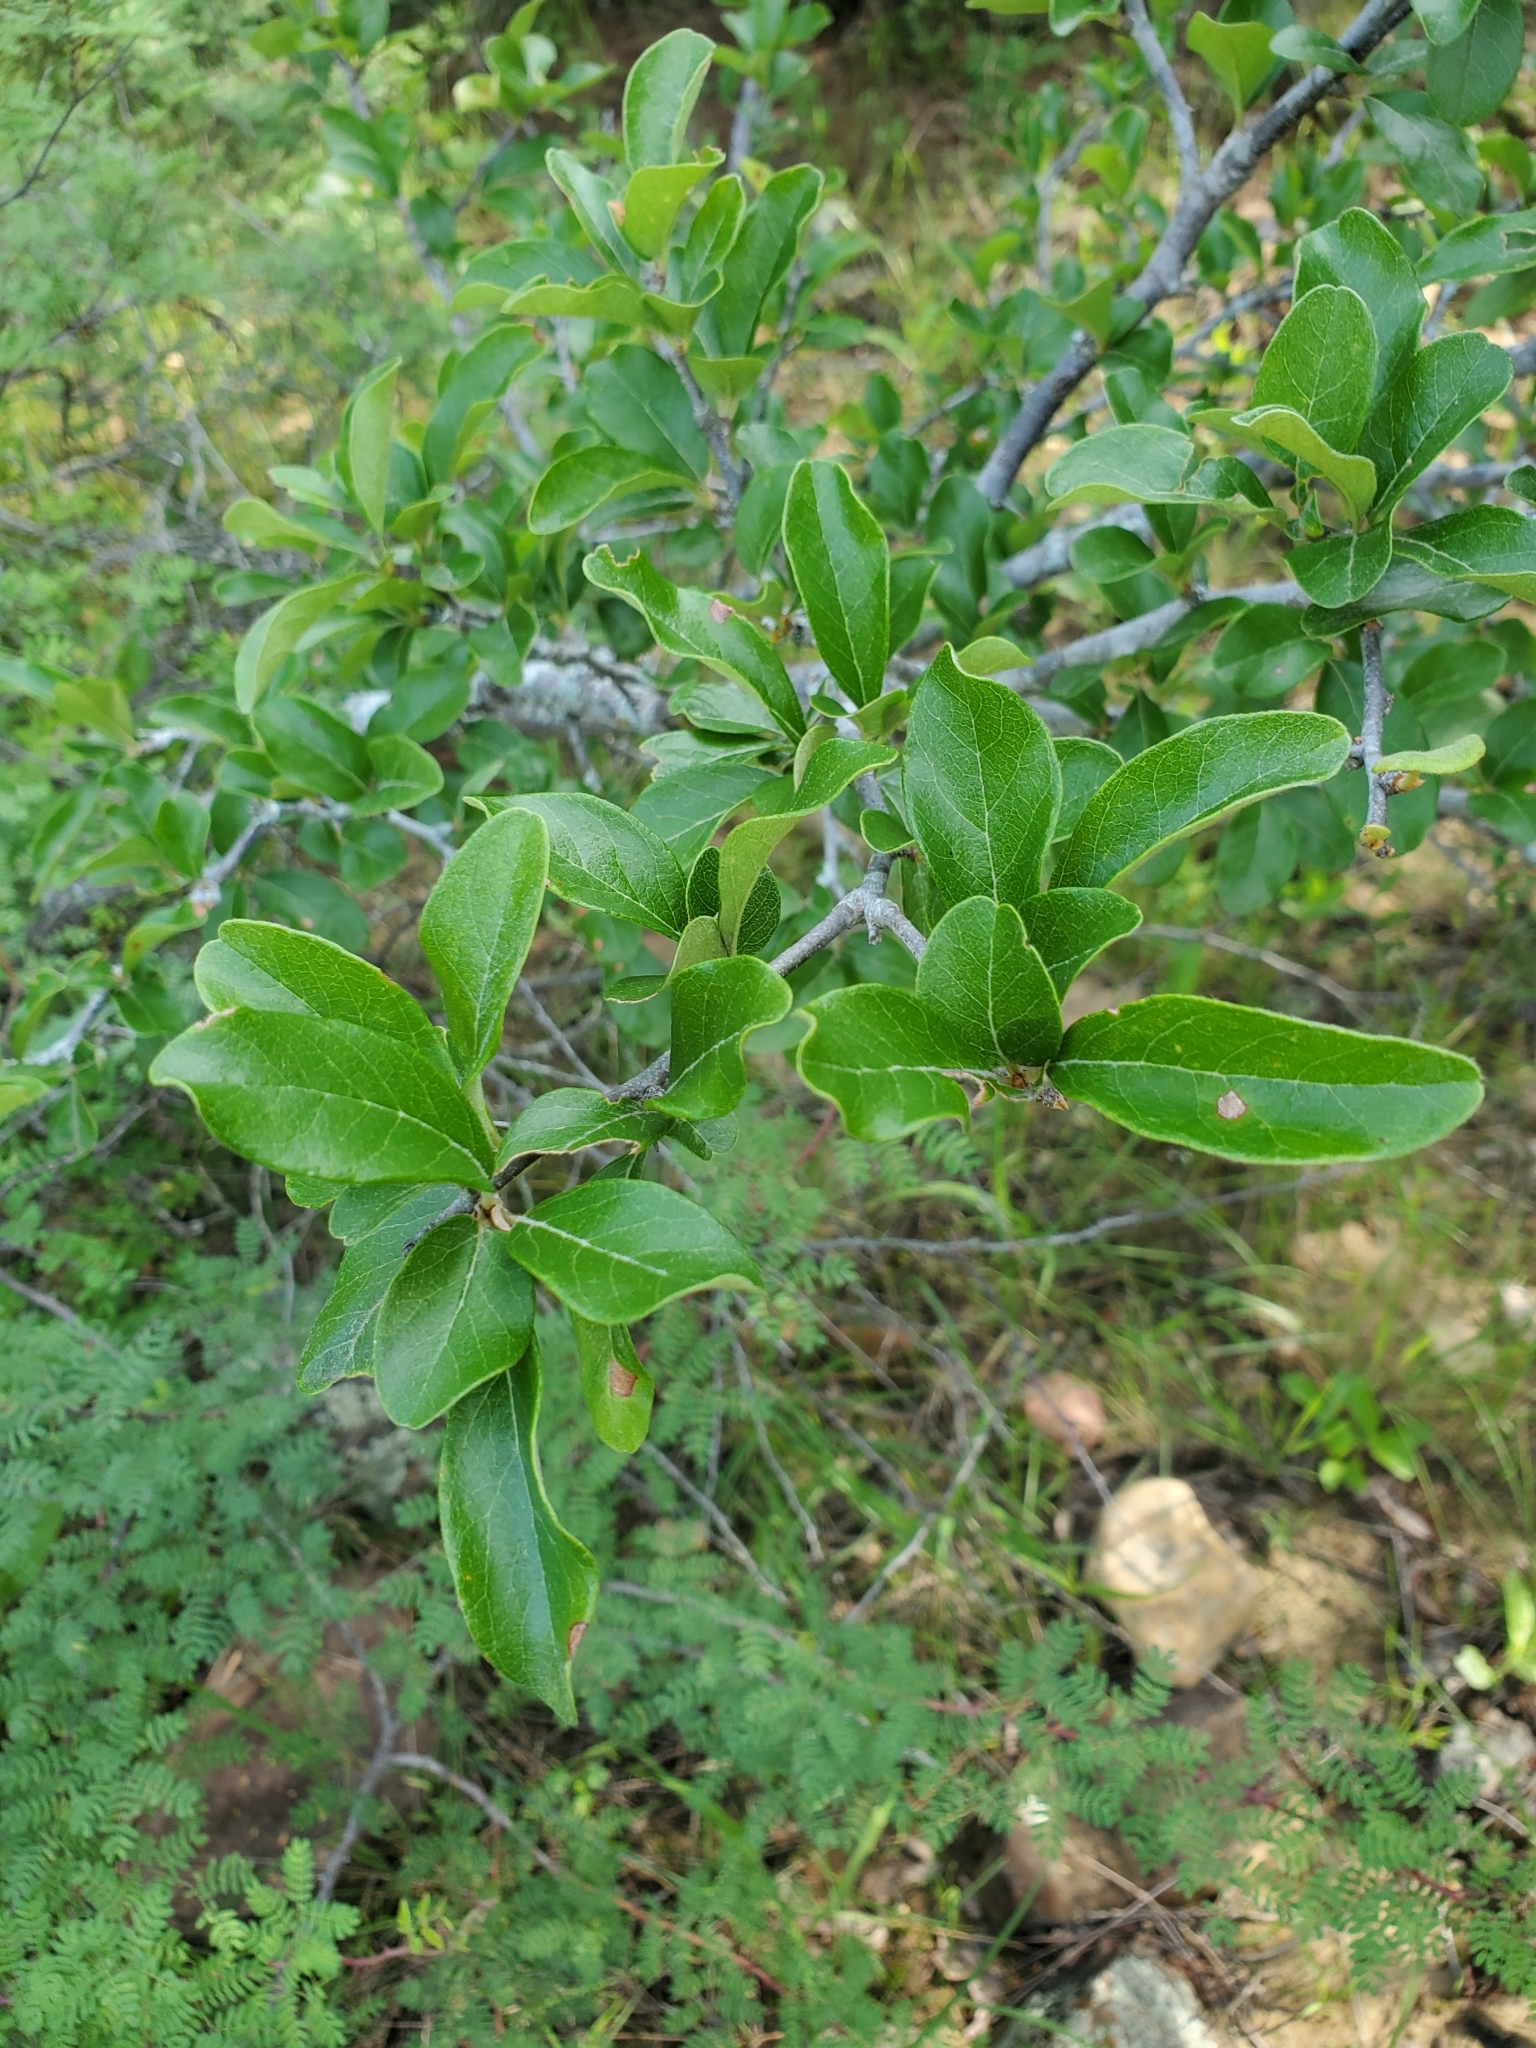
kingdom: Plantae
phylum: Tracheophyta
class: Magnoliopsida
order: Ericales
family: Sapotaceae
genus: Sideroxylon
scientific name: Sideroxylon lanuginosum
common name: Chittamwood
